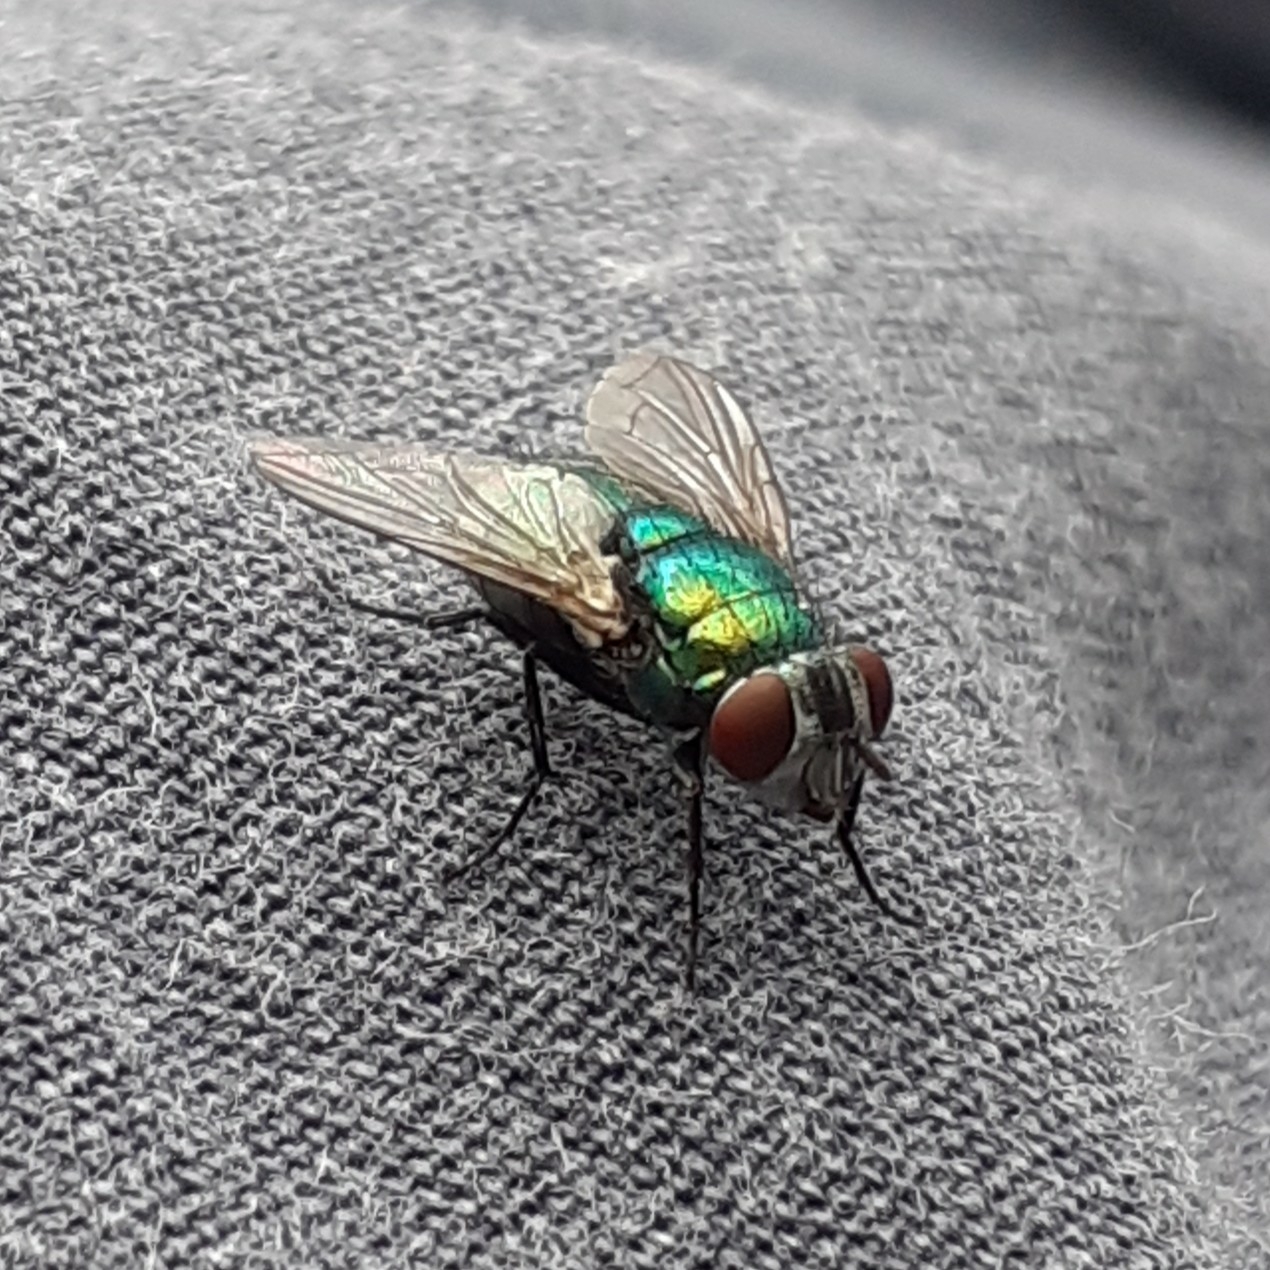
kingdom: Animalia
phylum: Arthropoda
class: Insecta
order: Diptera
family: Calliphoridae
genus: Lucilia
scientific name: Lucilia
